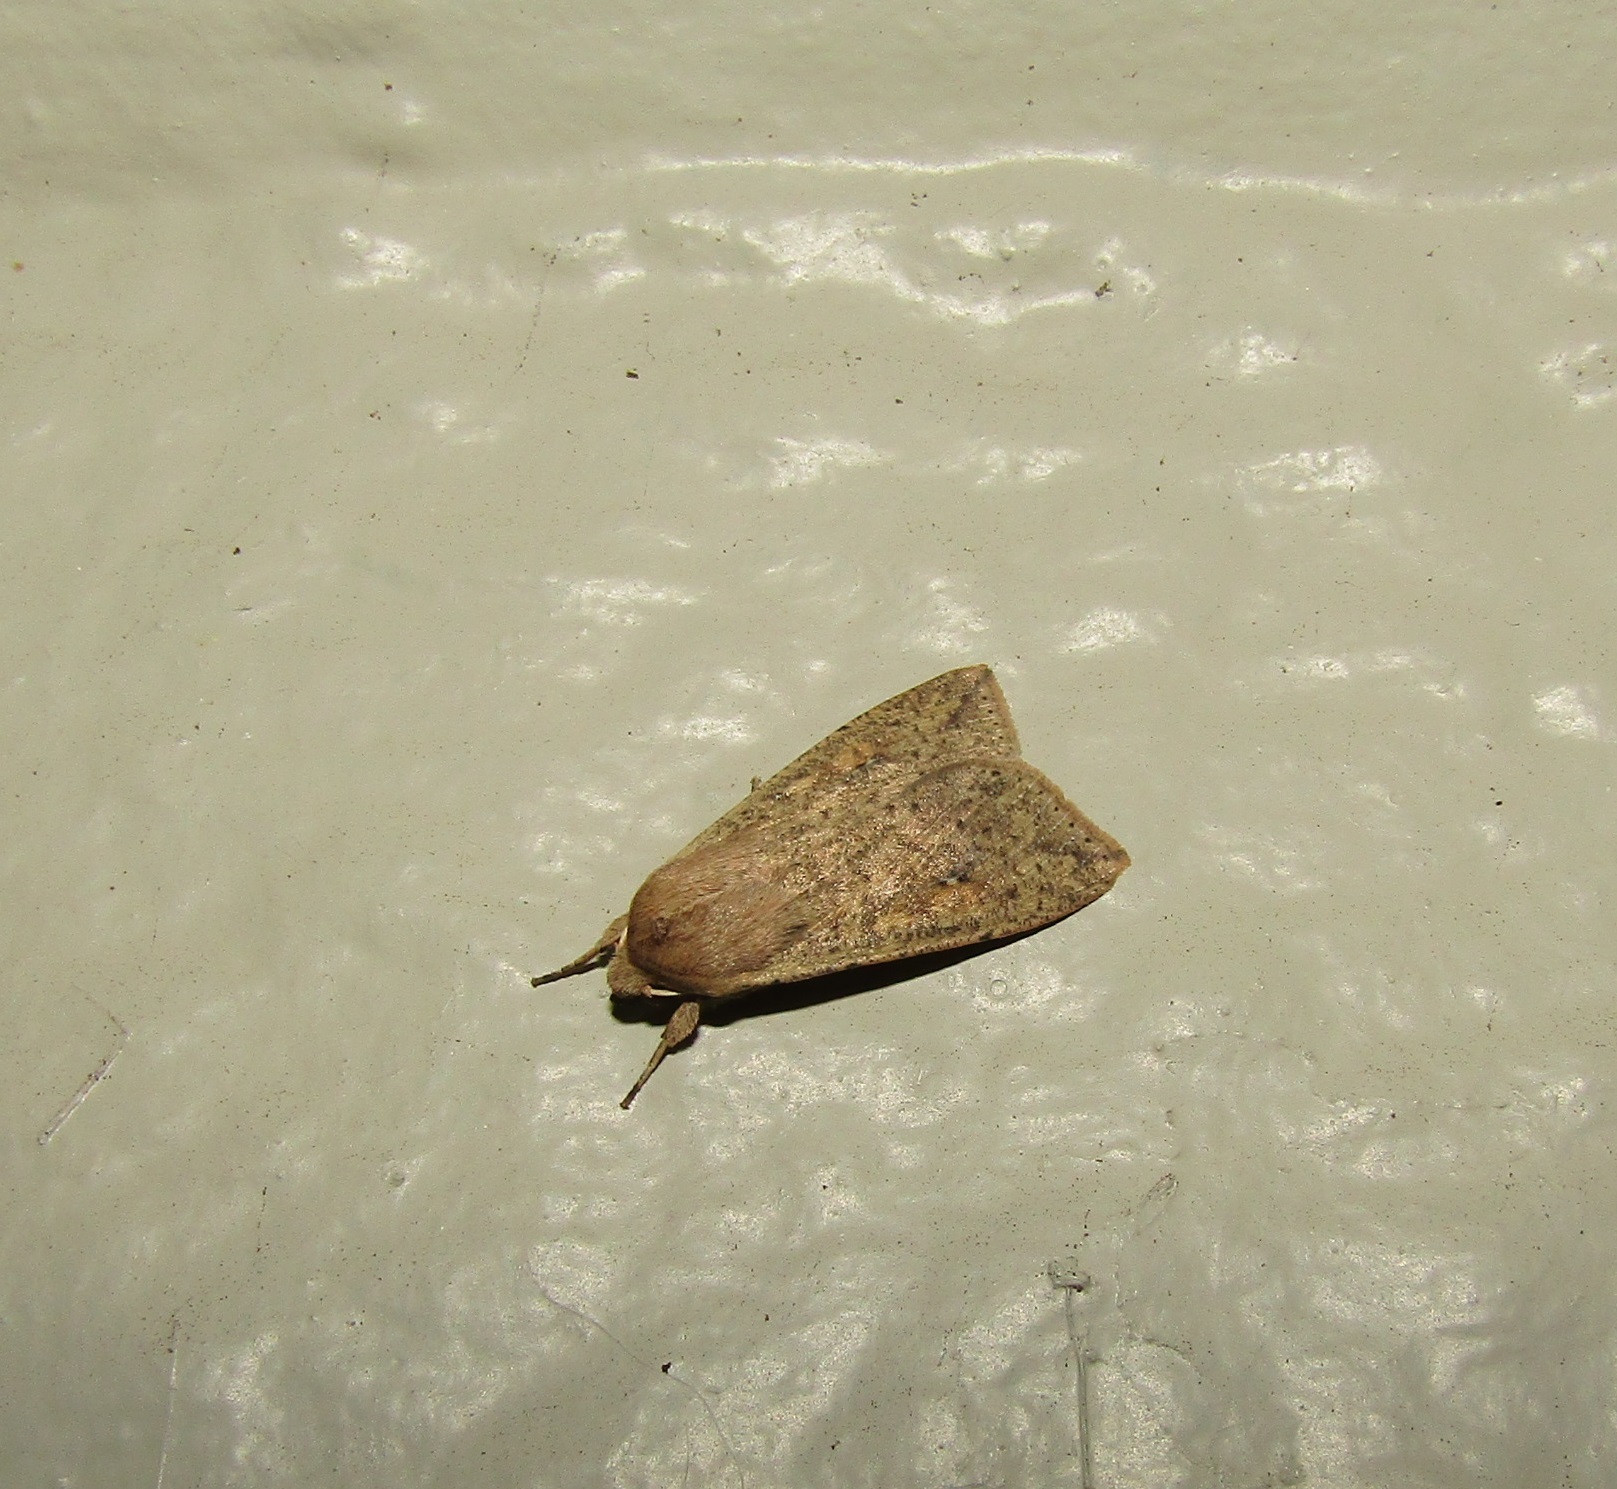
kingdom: Animalia
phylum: Arthropoda
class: Insecta
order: Lepidoptera
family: Noctuidae
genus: Mythimna
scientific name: Mythimna separata
